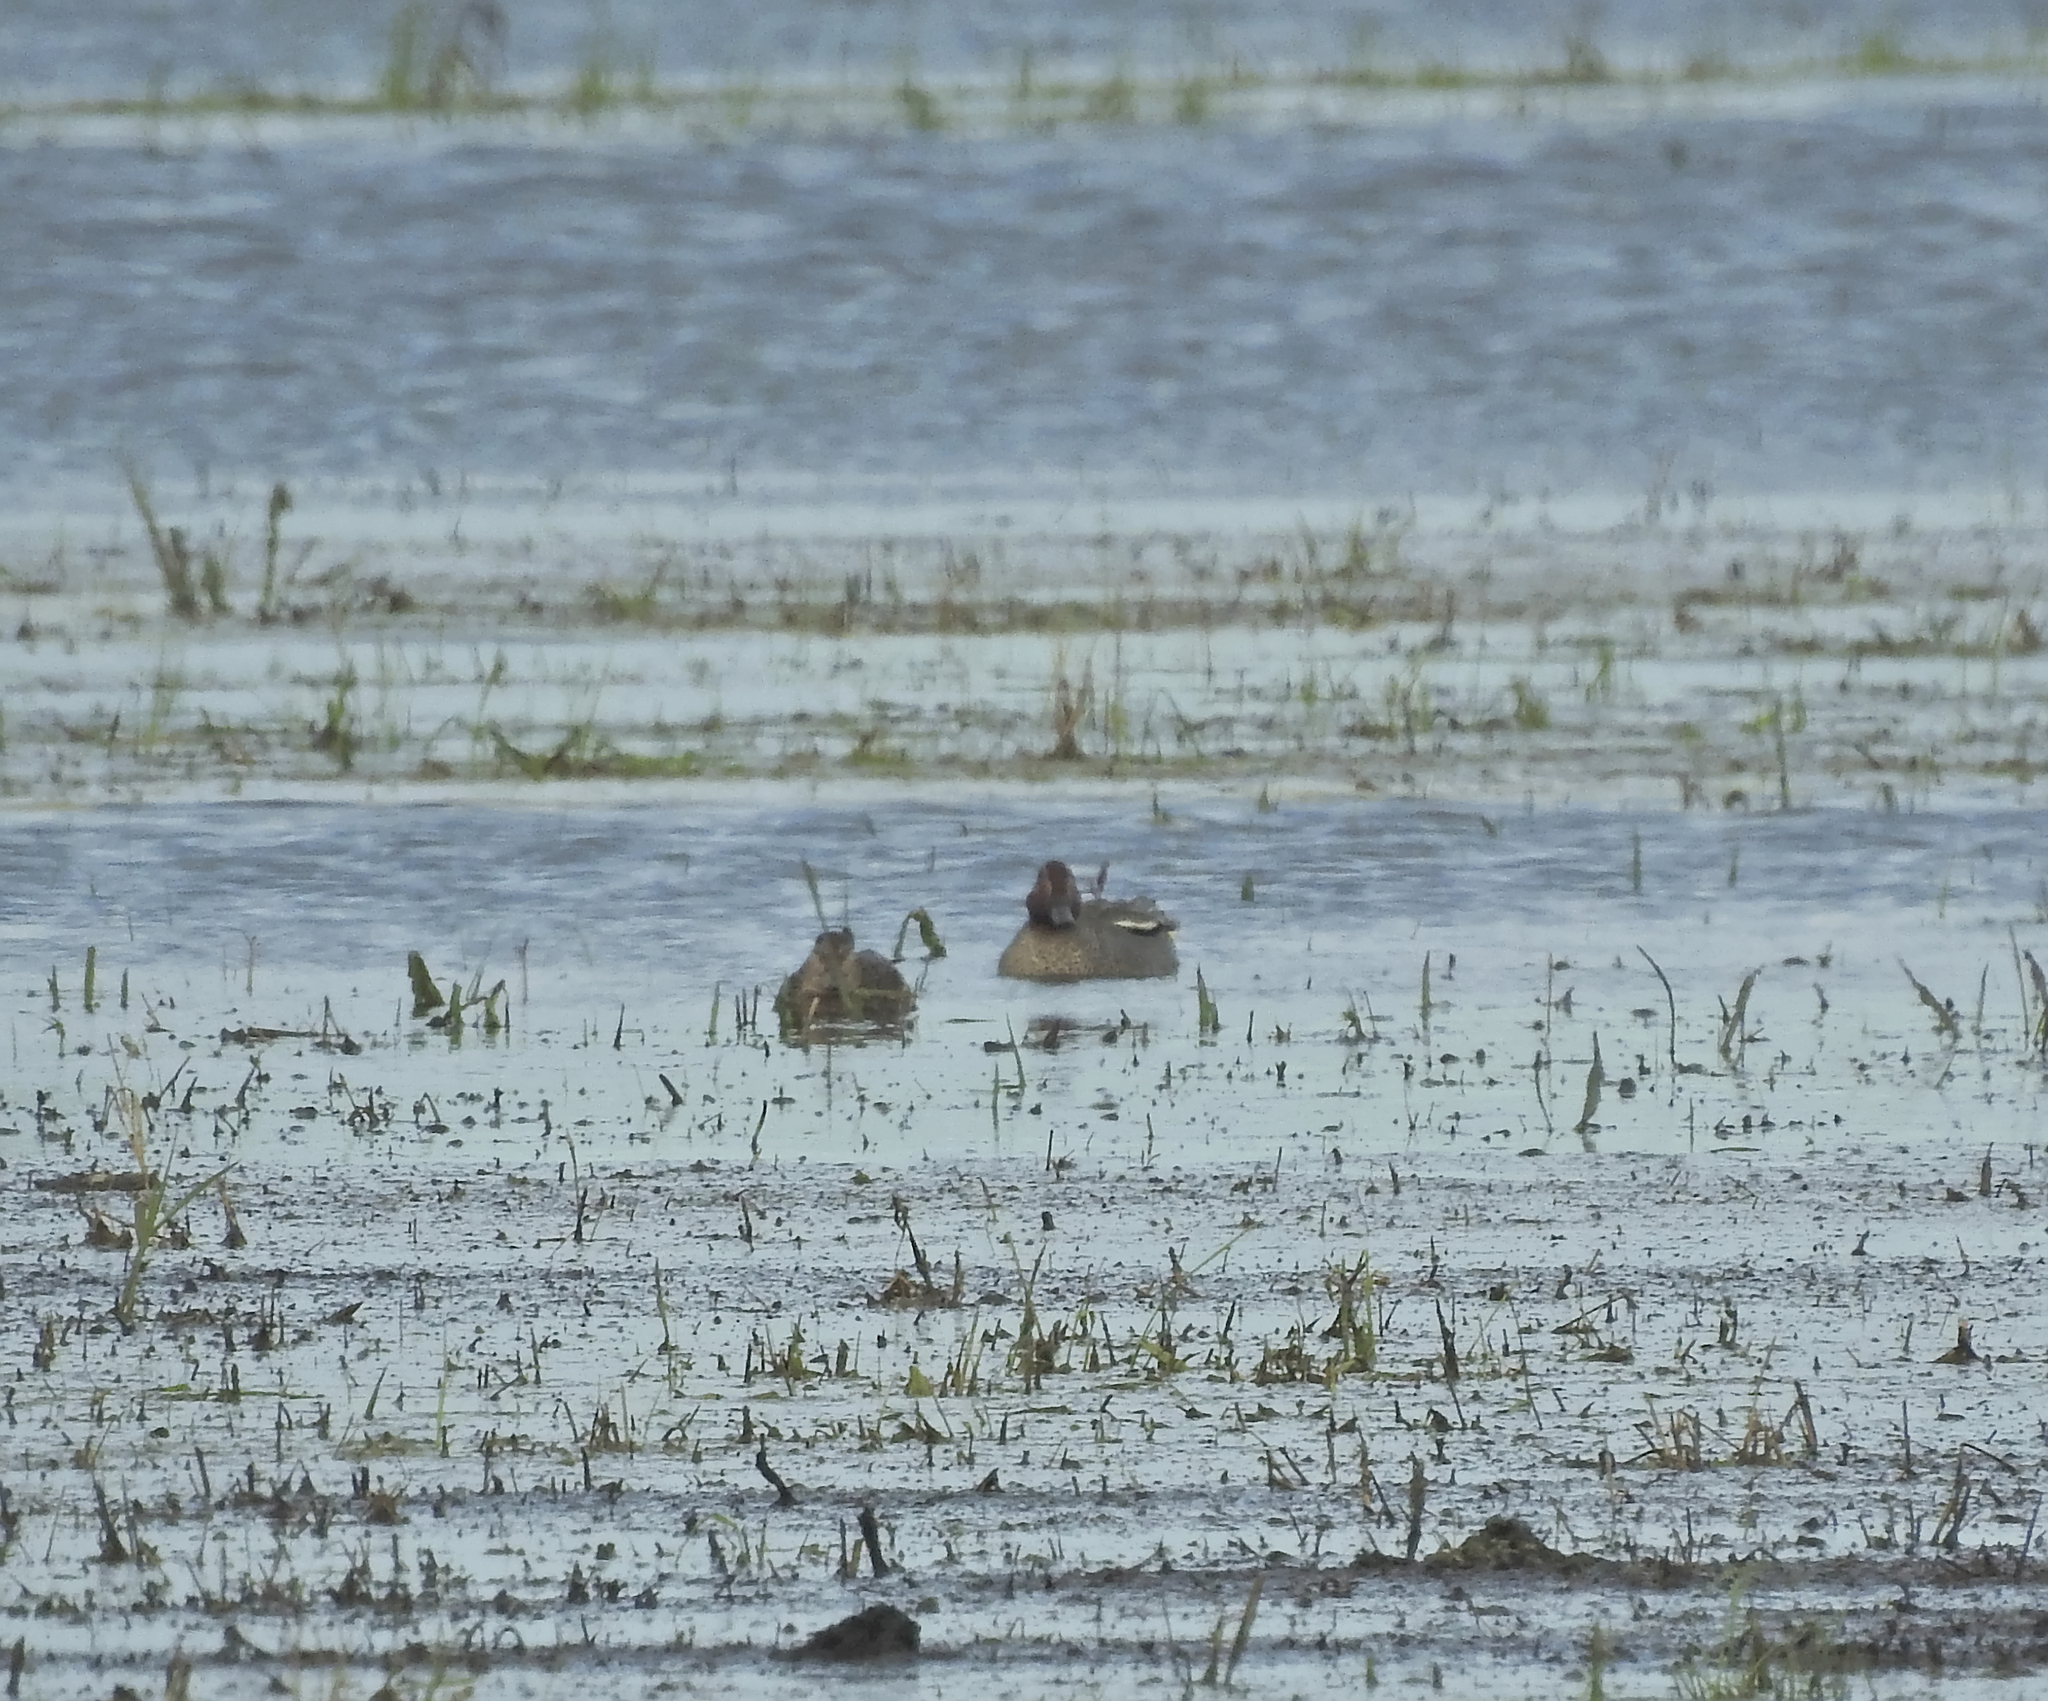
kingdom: Animalia
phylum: Chordata
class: Aves
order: Anseriformes
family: Anatidae
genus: Anas
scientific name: Anas crecca
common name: Eurasian teal
